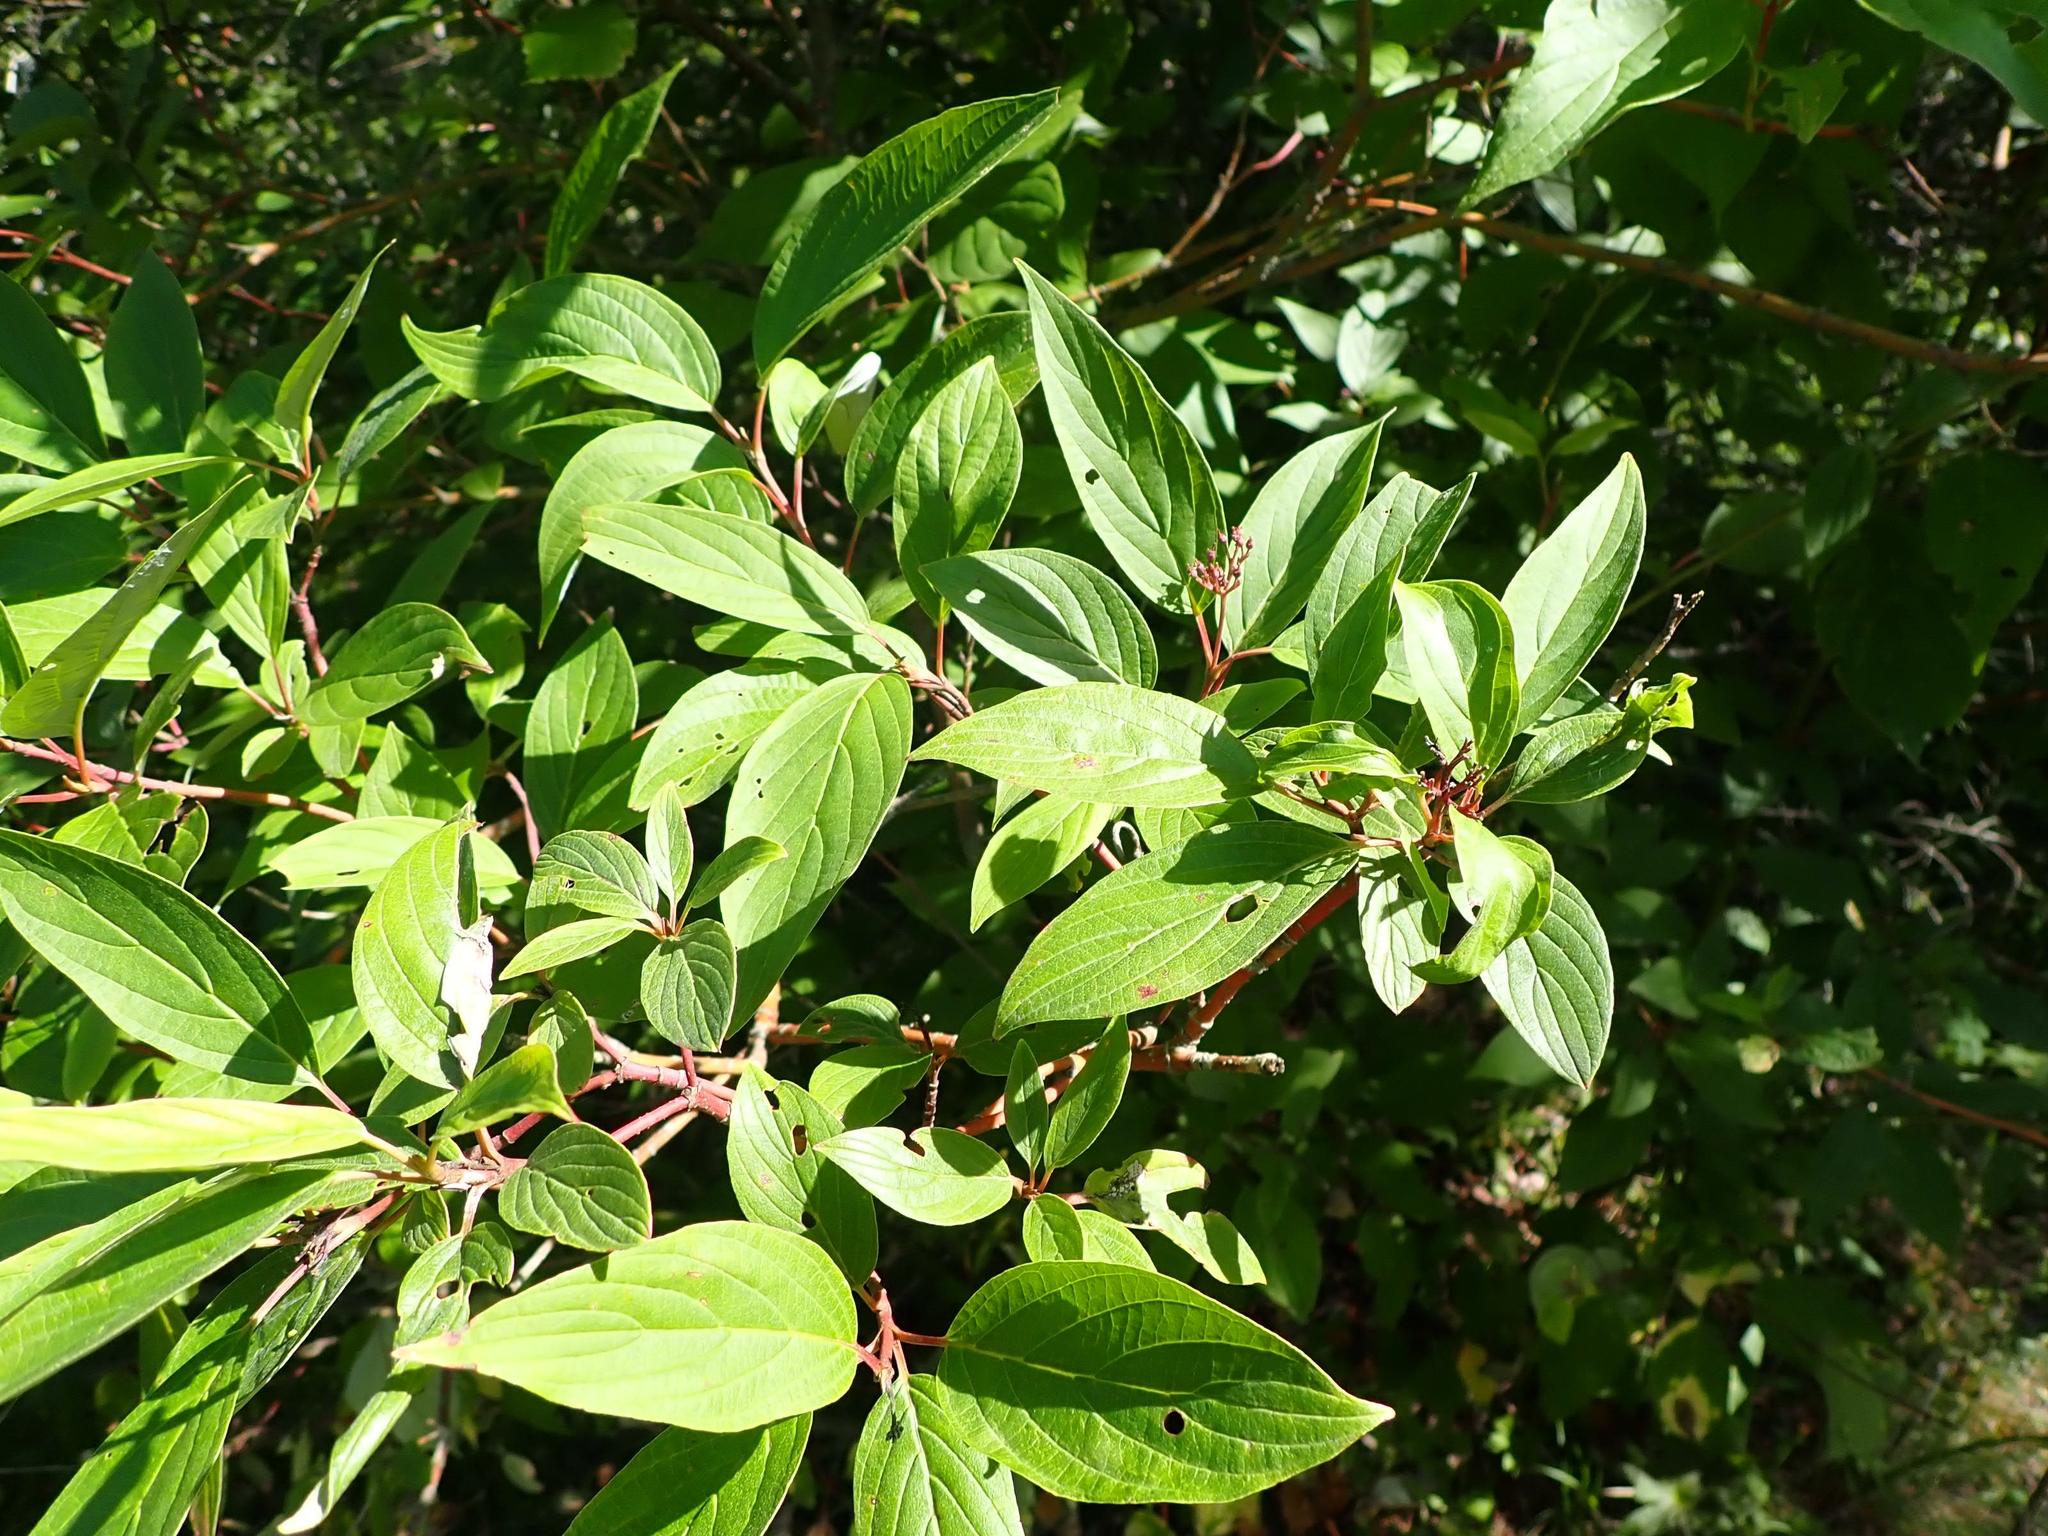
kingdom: Plantae
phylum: Tracheophyta
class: Magnoliopsida
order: Cornales
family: Cornaceae
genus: Cornus
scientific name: Cornus sericea
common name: Red-osier dogwood
